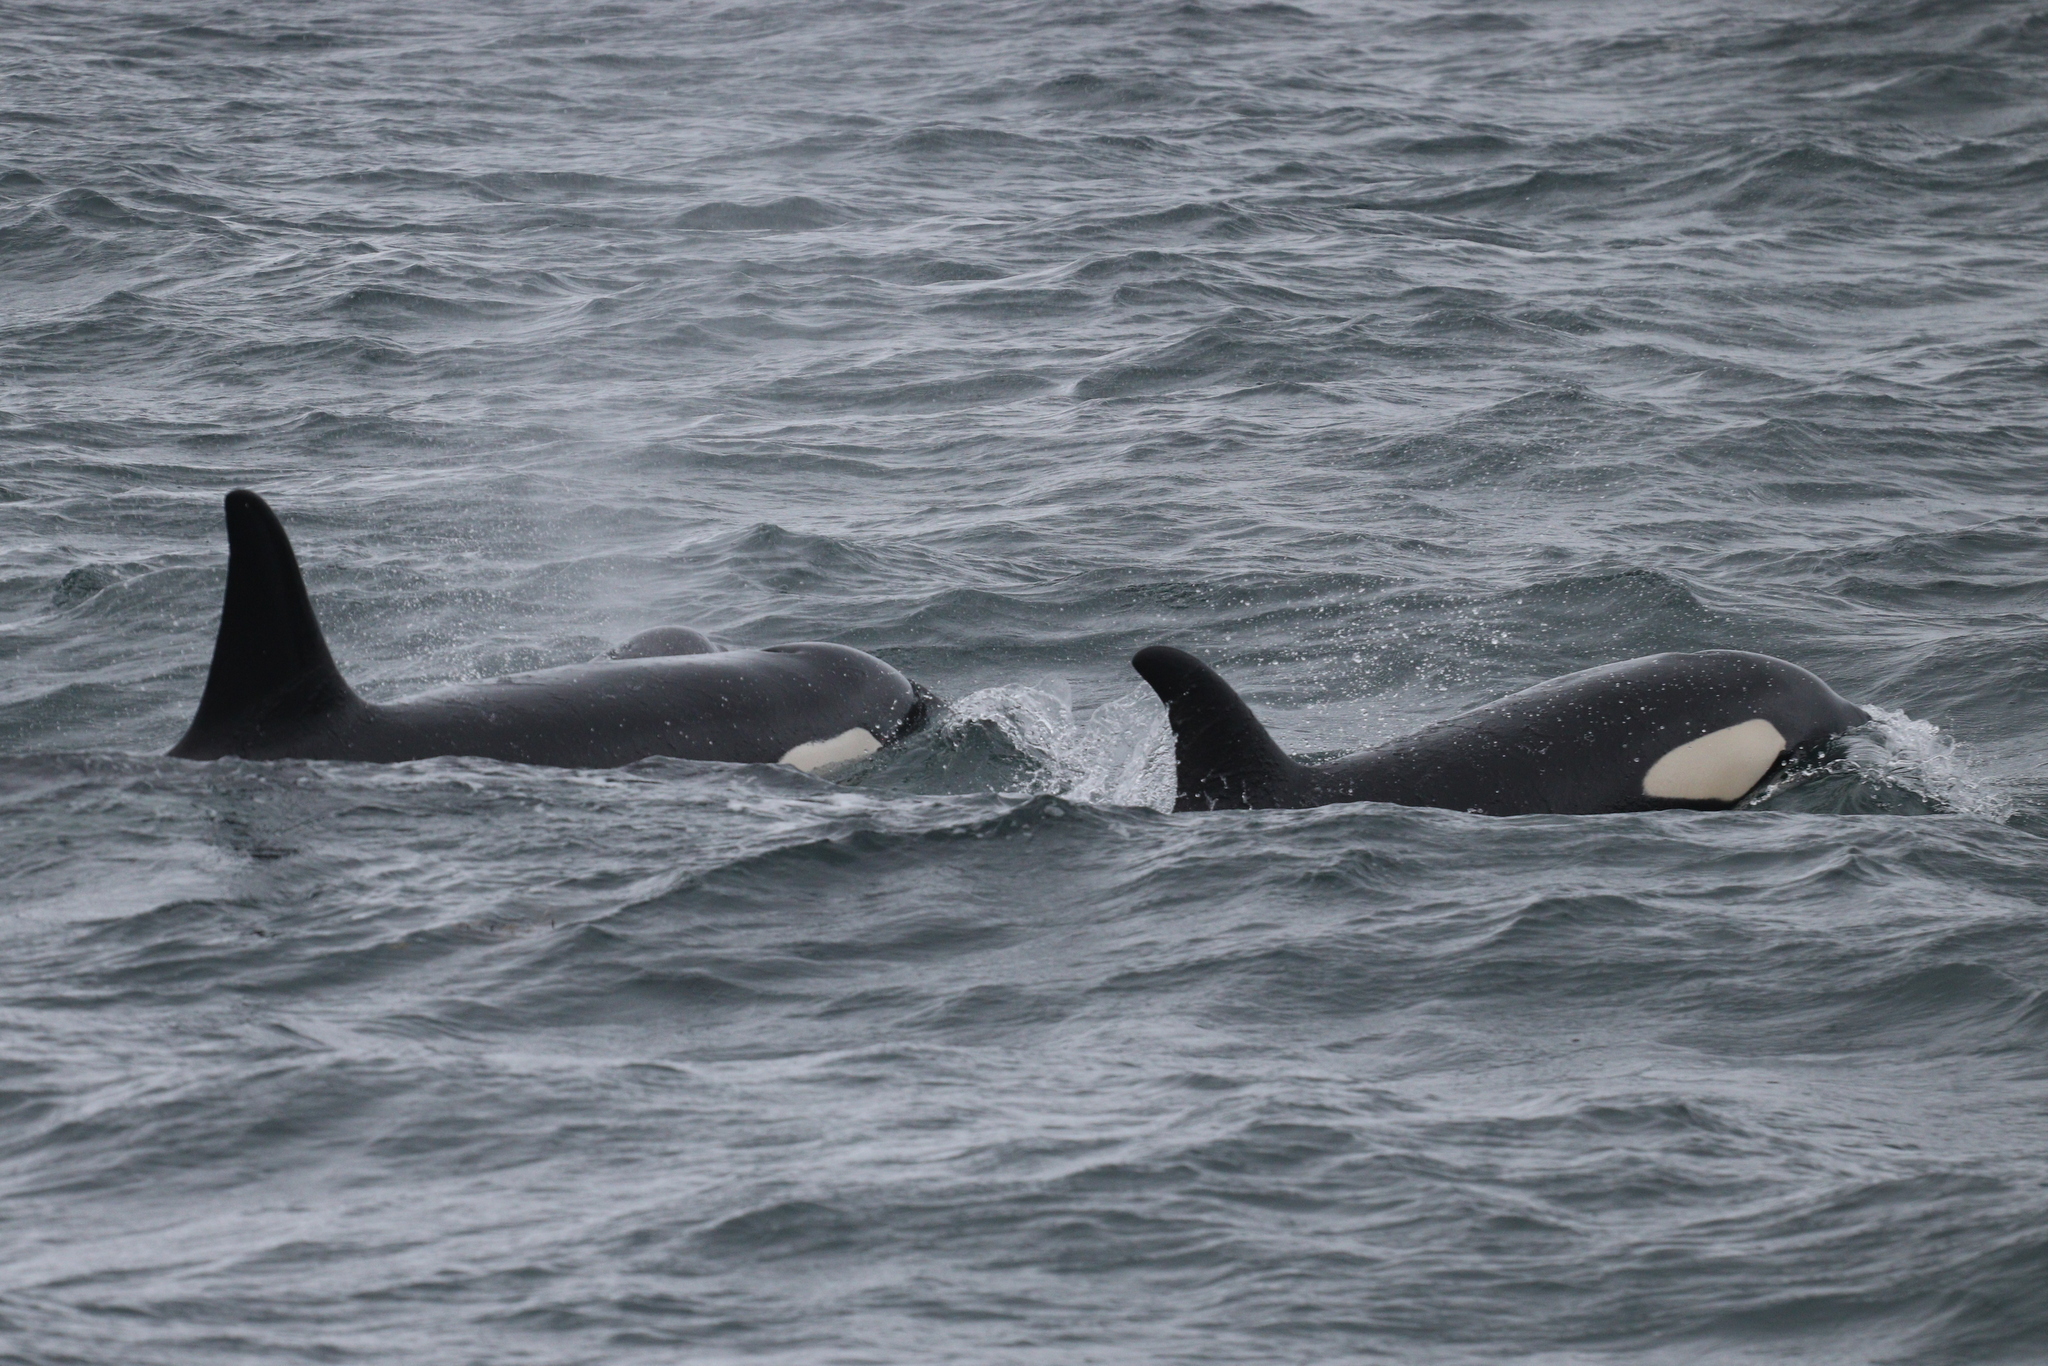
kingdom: Animalia
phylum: Chordata
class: Mammalia
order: Cetacea
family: Delphinidae
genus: Orcinus
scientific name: Orcinus orca
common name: Killer whale
